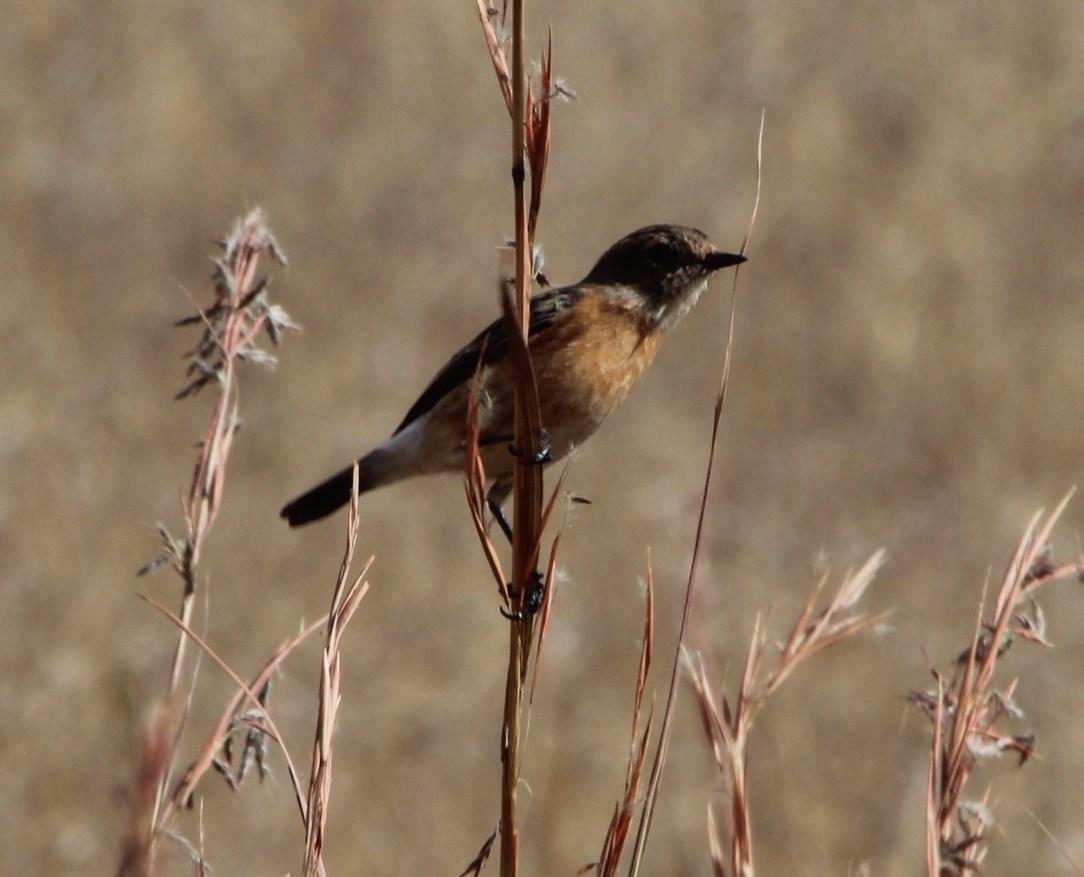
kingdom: Animalia
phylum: Chordata
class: Aves
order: Passeriformes
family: Muscicapidae
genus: Saxicola
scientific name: Saxicola torquatus
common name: African stonechat
